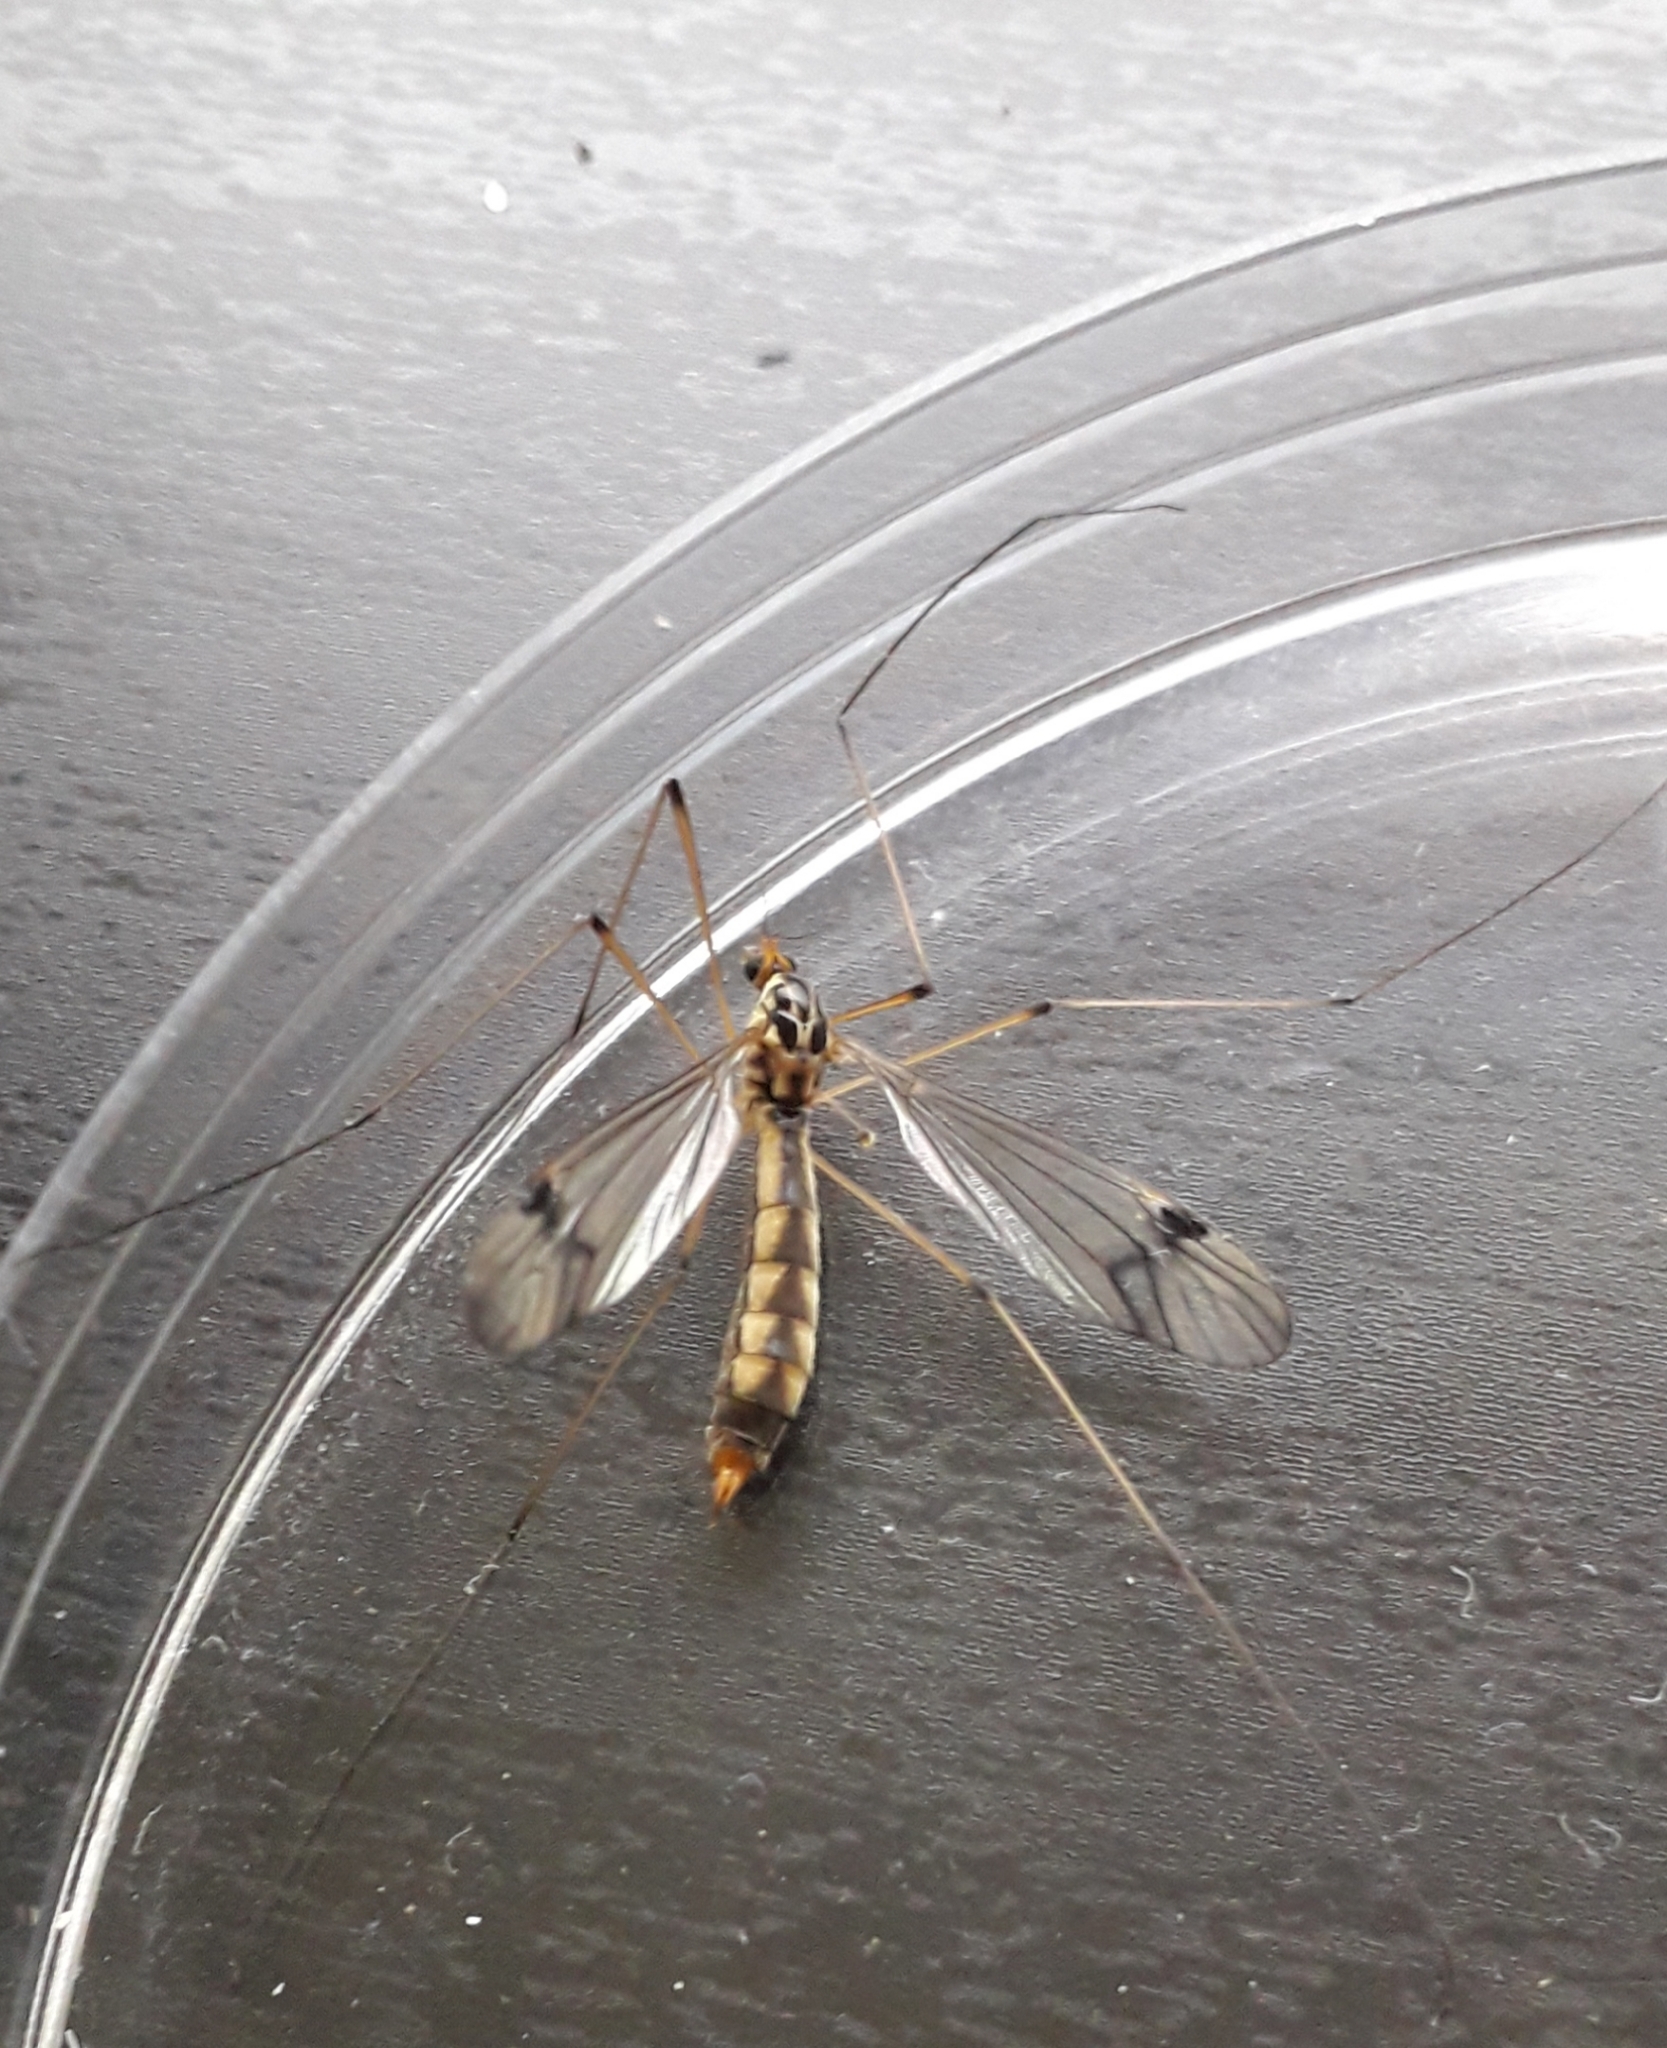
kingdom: Animalia
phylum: Arthropoda
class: Insecta
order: Diptera
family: Tipulidae
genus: Nephrotoma
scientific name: Nephrotoma quadrifaria
